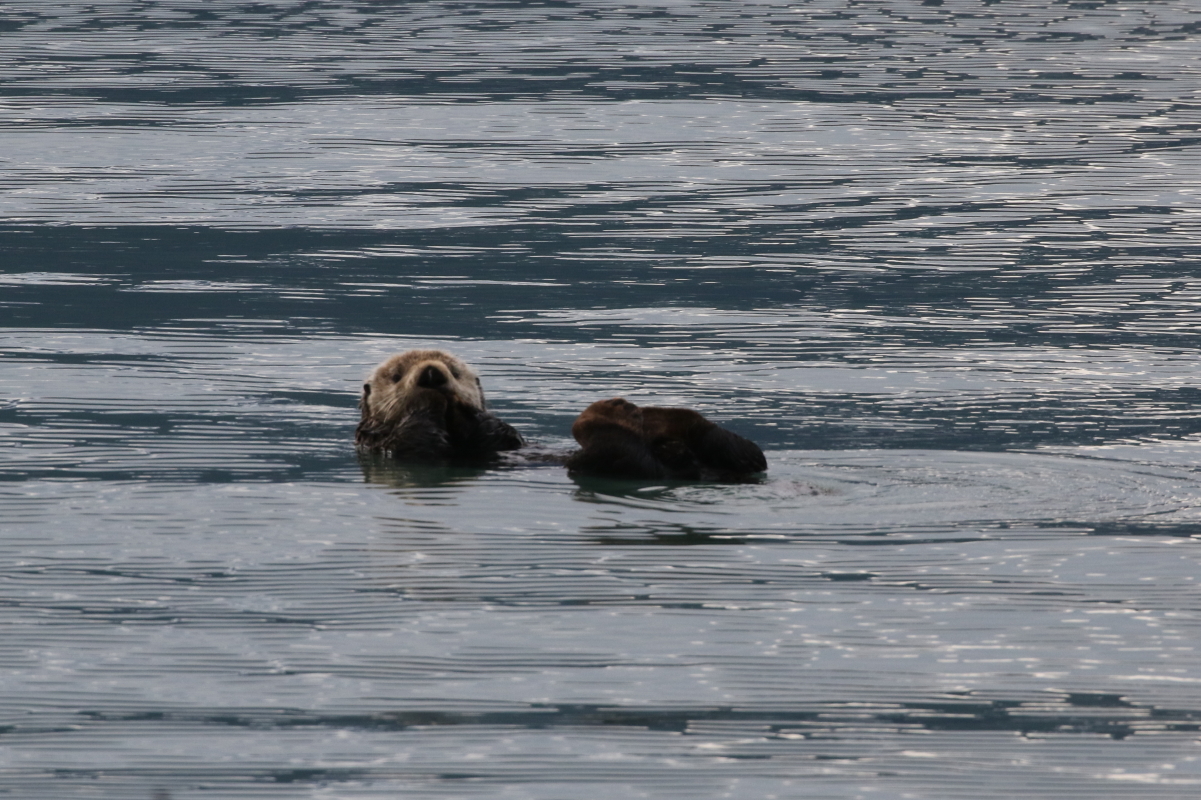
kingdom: Animalia
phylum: Chordata
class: Mammalia
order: Carnivora
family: Mustelidae
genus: Enhydra
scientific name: Enhydra lutris
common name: Sea otter
